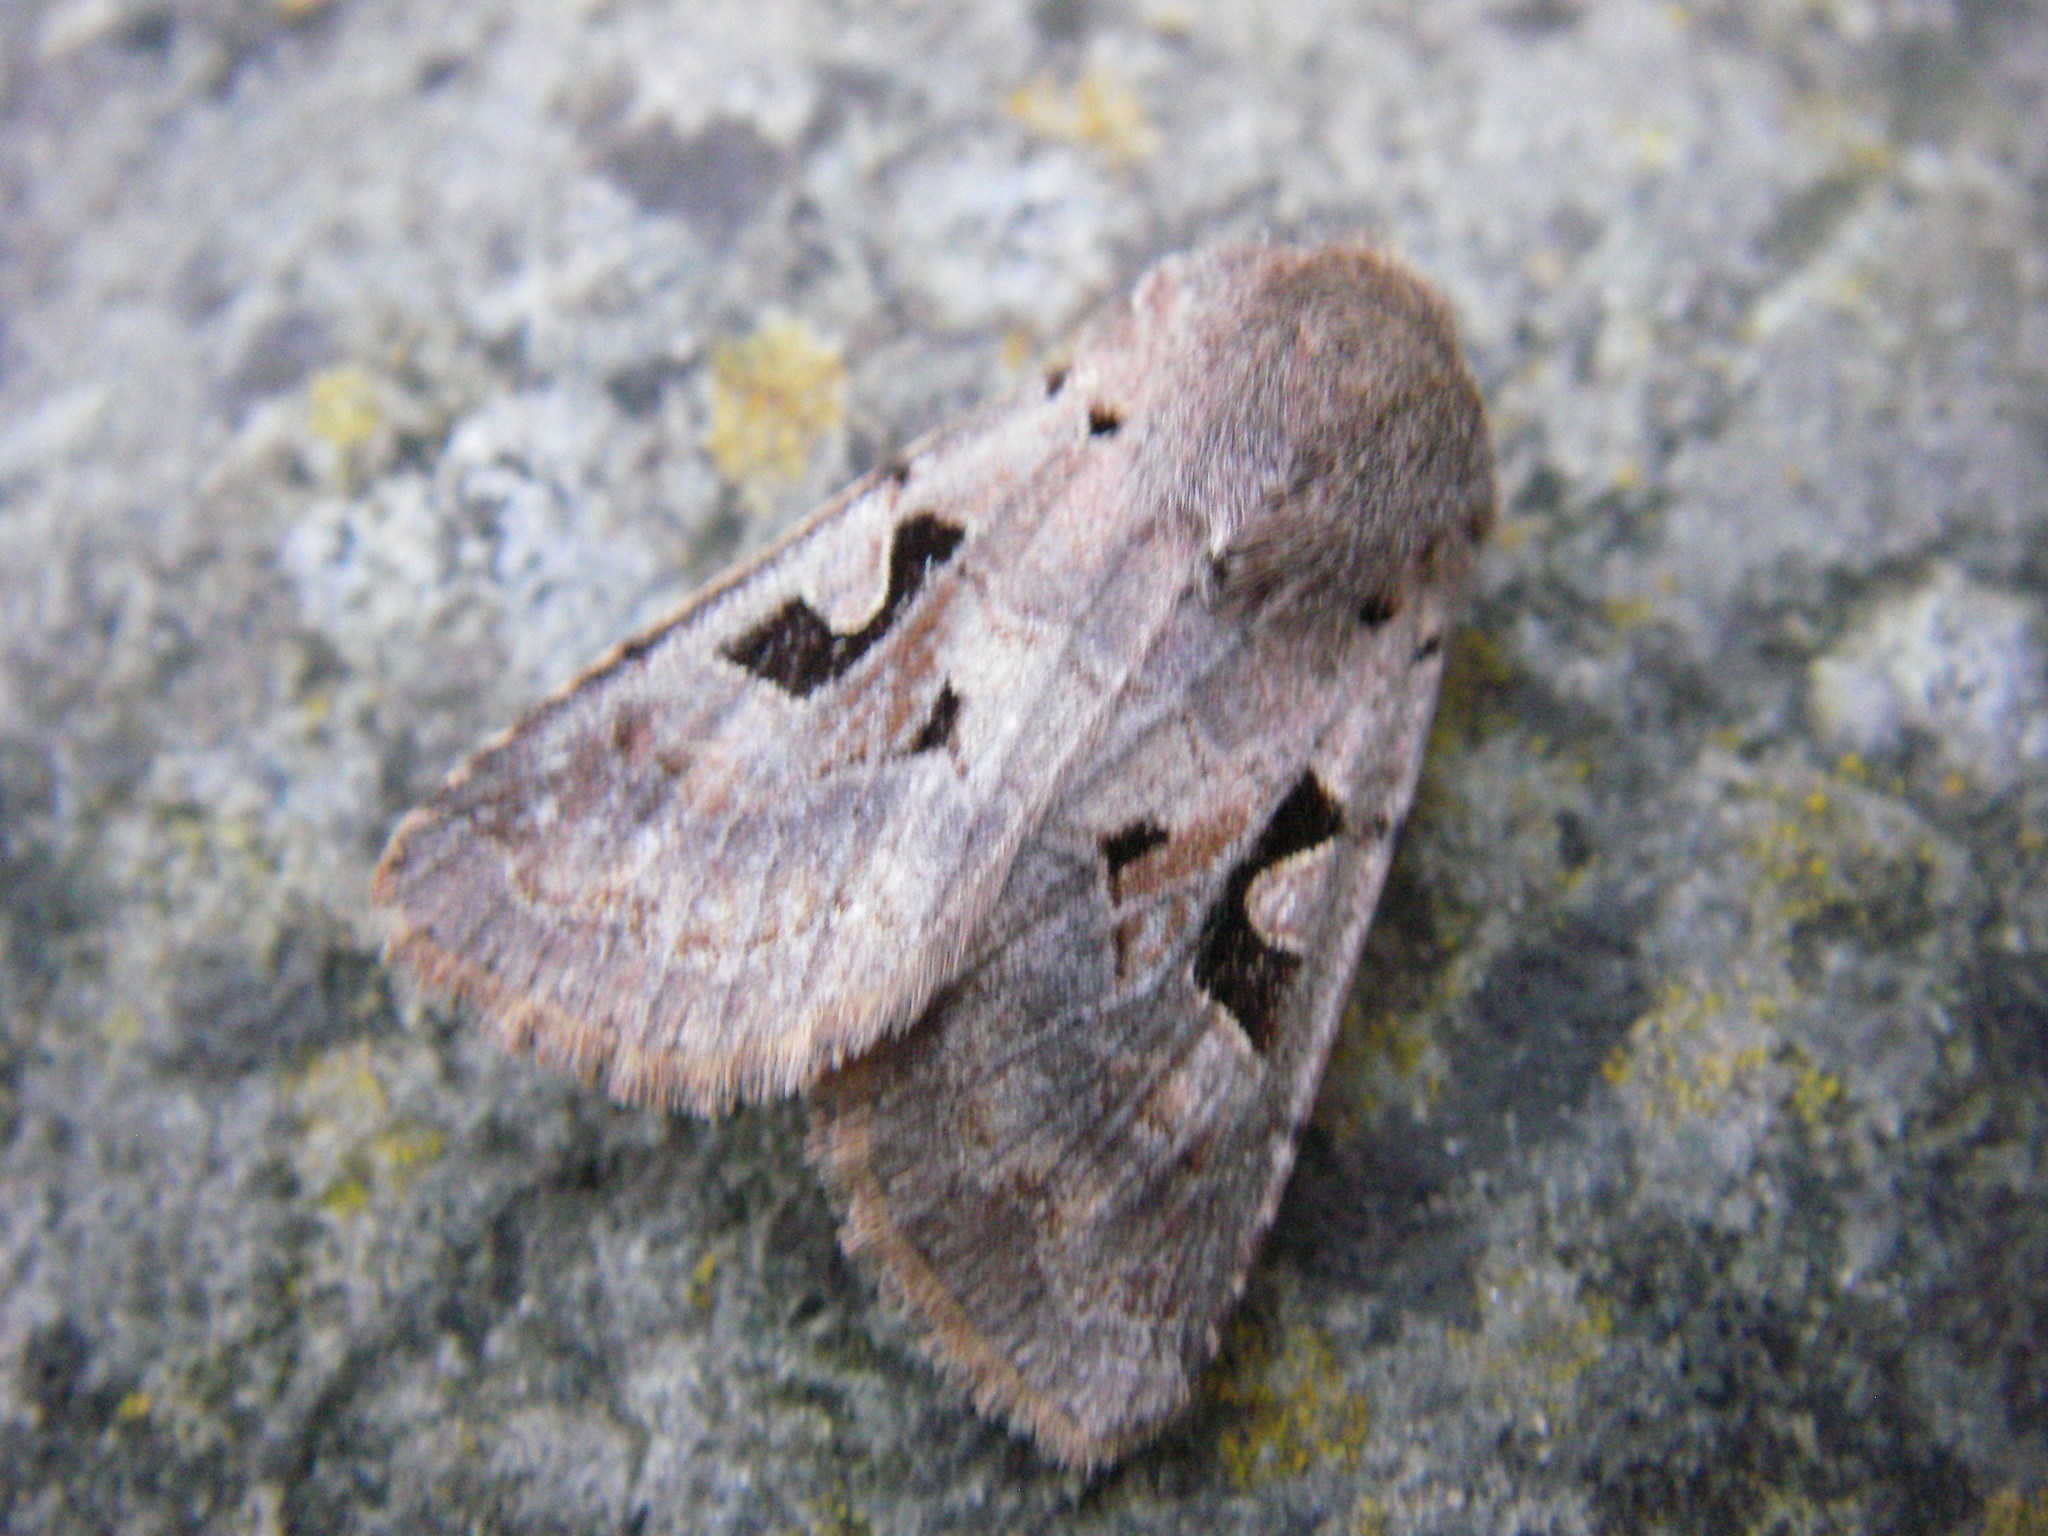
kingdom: Animalia
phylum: Arthropoda
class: Insecta
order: Lepidoptera
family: Noctuidae
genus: Orthosia
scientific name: Orthosia gothica
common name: Hebrew character
